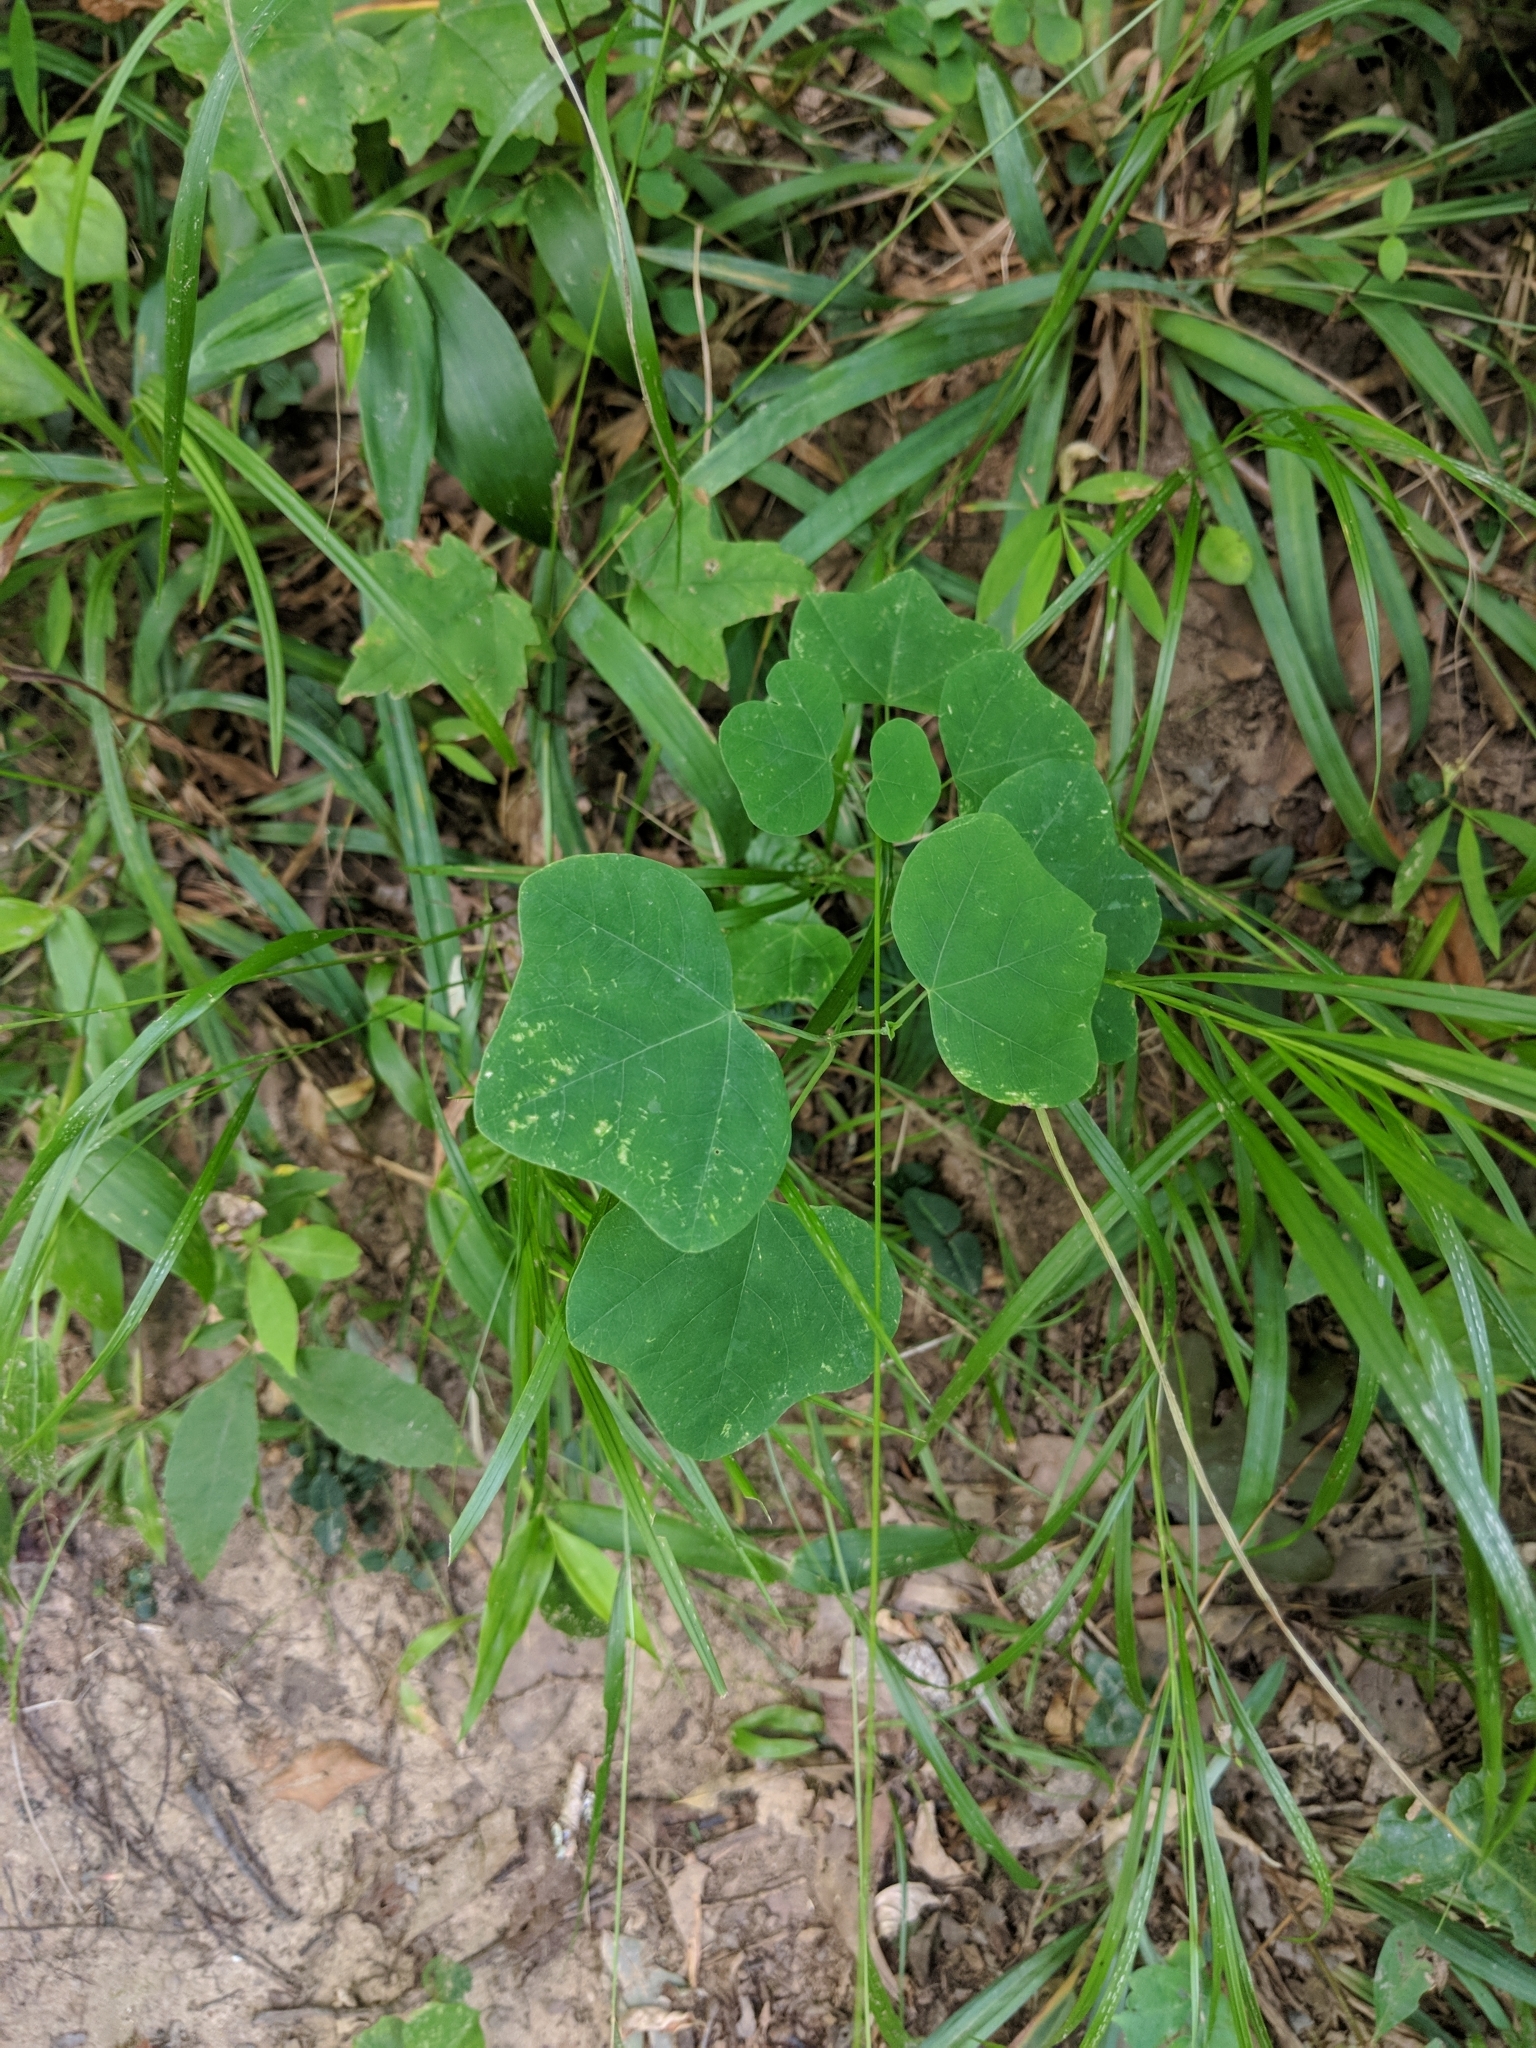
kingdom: Plantae
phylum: Tracheophyta
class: Magnoliopsida
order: Malpighiales
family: Passifloraceae
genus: Passiflora
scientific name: Passiflora lutea
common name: Yellow passionflower
